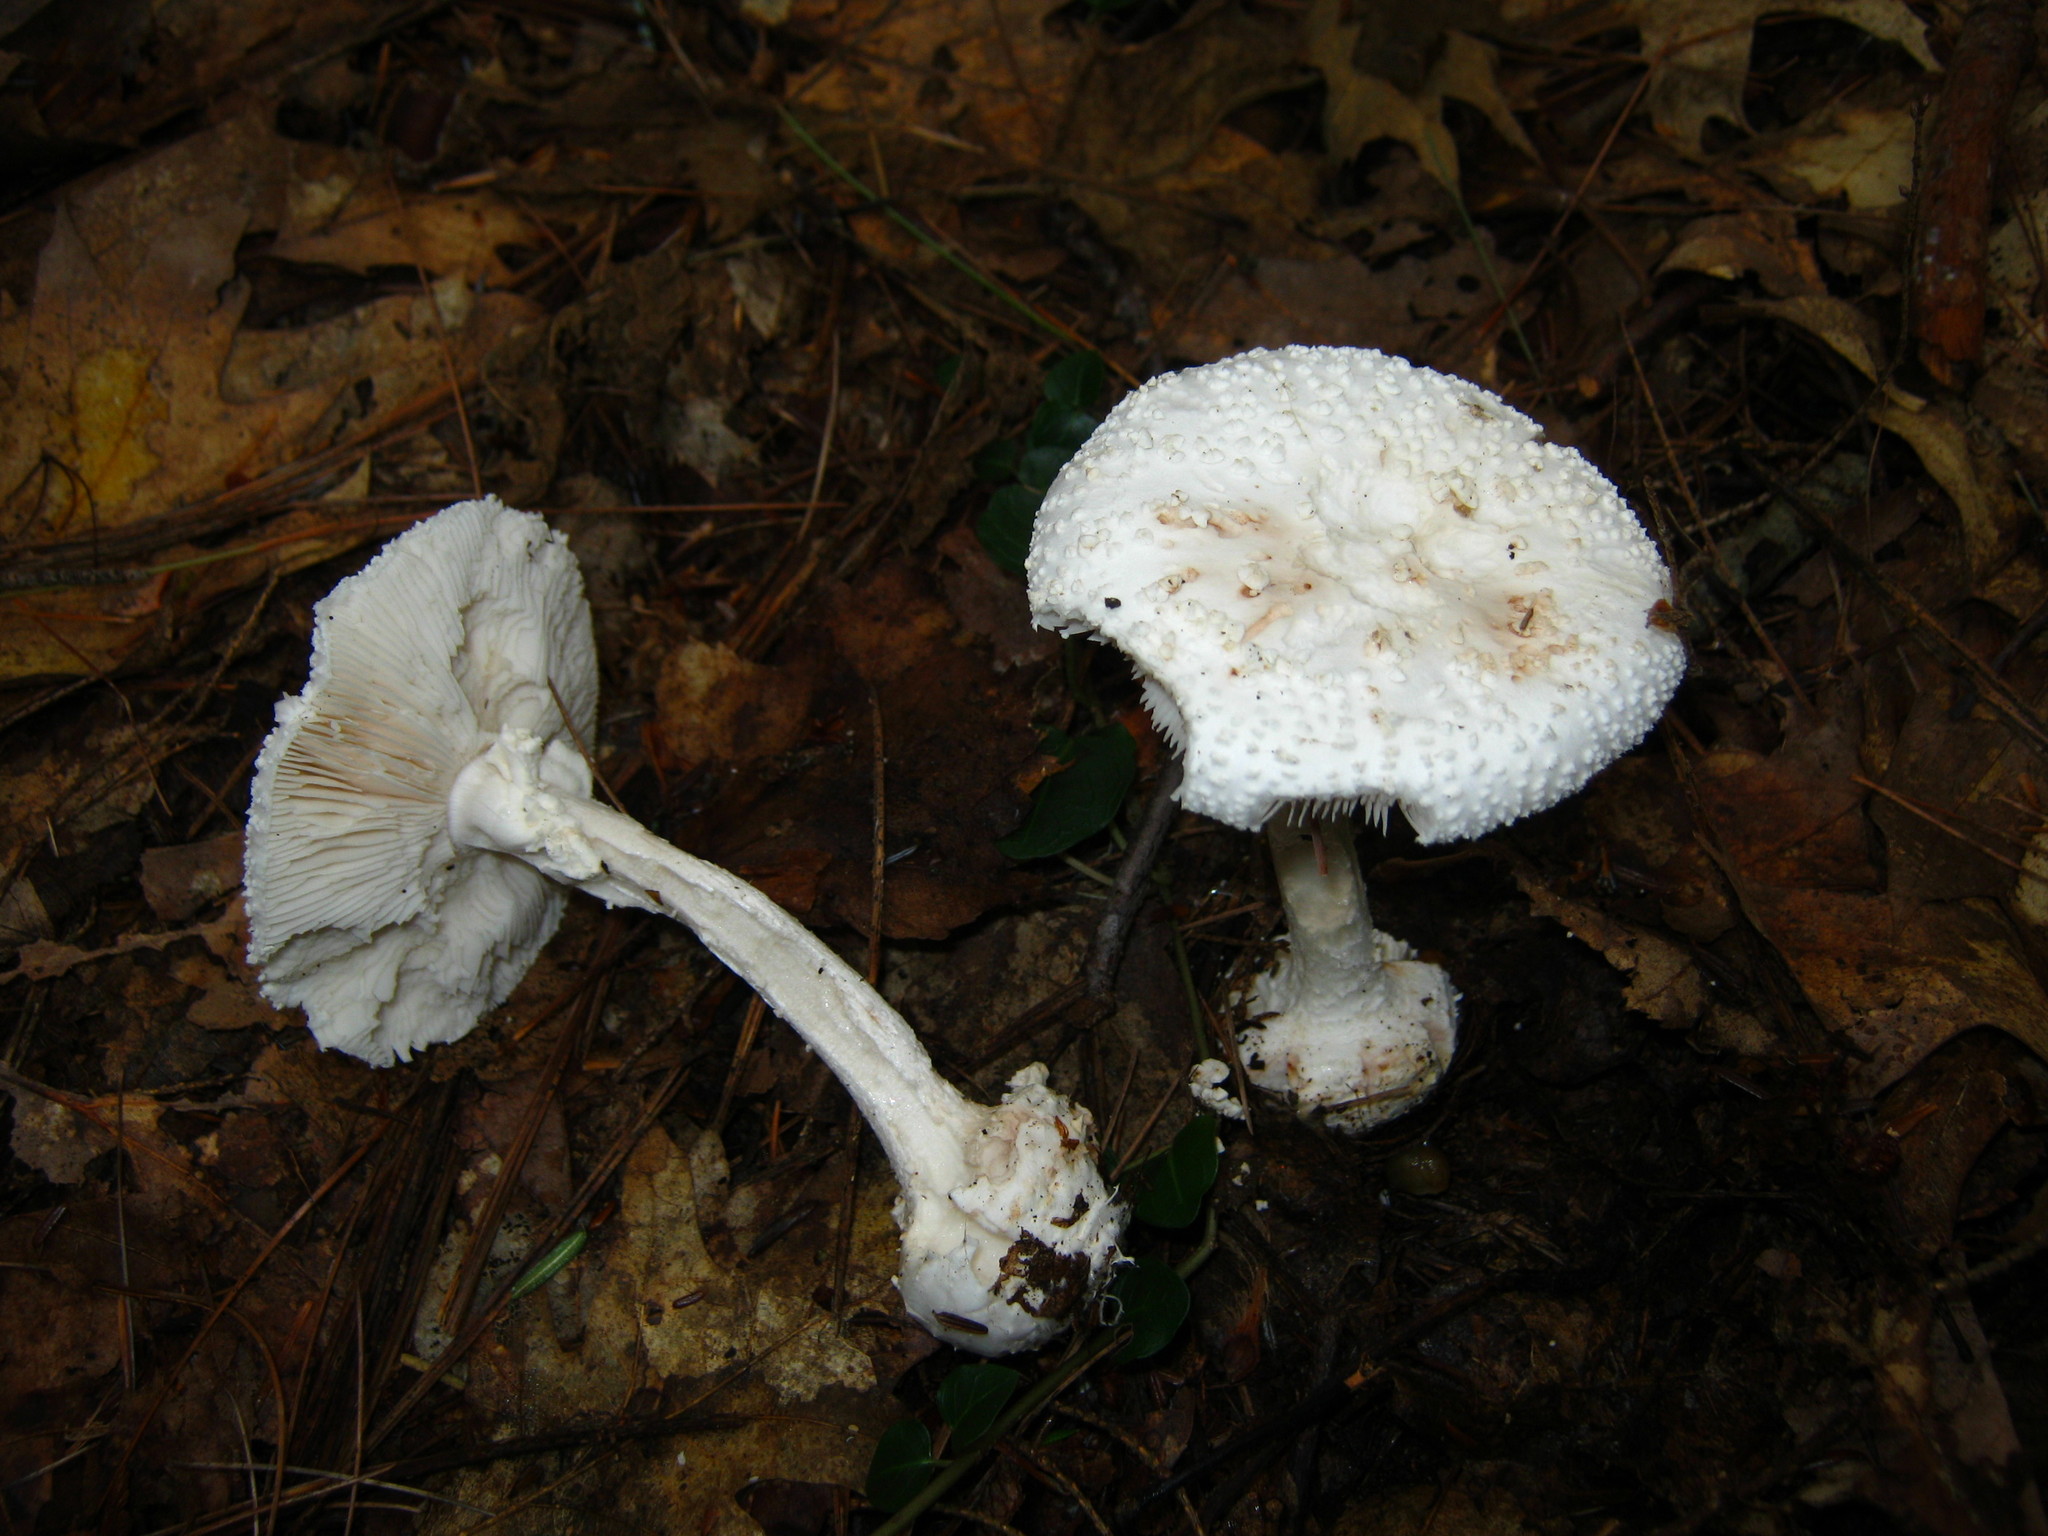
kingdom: Fungi
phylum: Basidiomycota
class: Agaricomycetes
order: Agaricales
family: Amanitaceae
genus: Amanita
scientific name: Amanita abrupta
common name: American abrupt-bulbed lepidella
